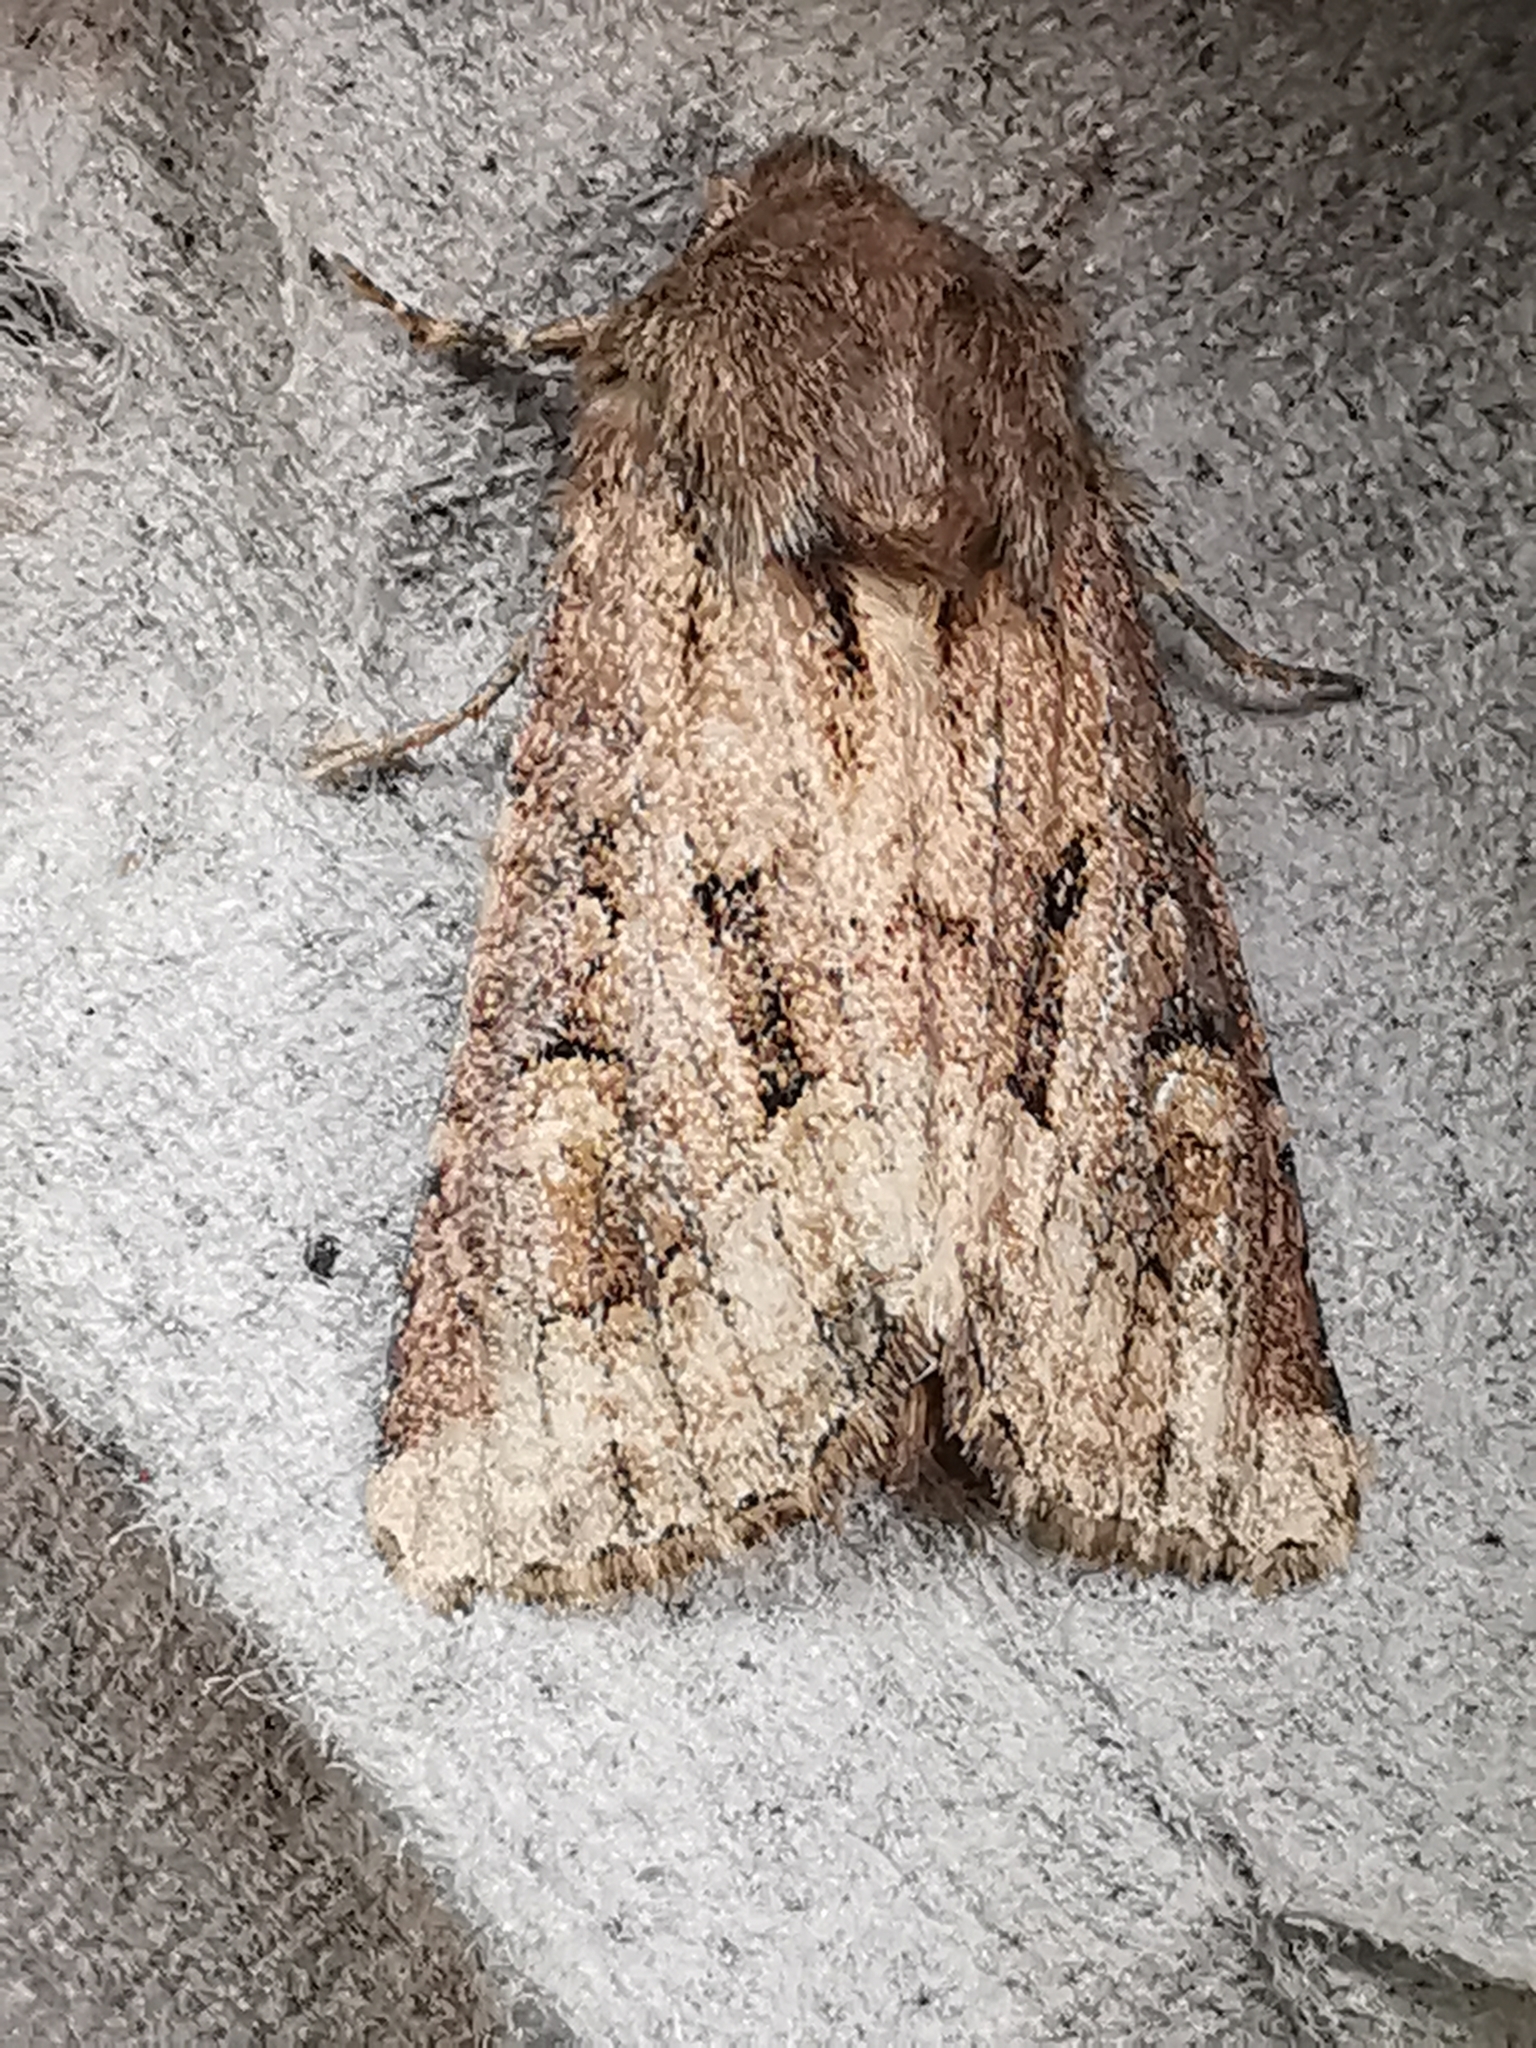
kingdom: Animalia
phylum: Arthropoda
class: Insecta
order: Lepidoptera
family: Noctuidae
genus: Luperina
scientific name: Luperina testacea
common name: Flounced rustic
